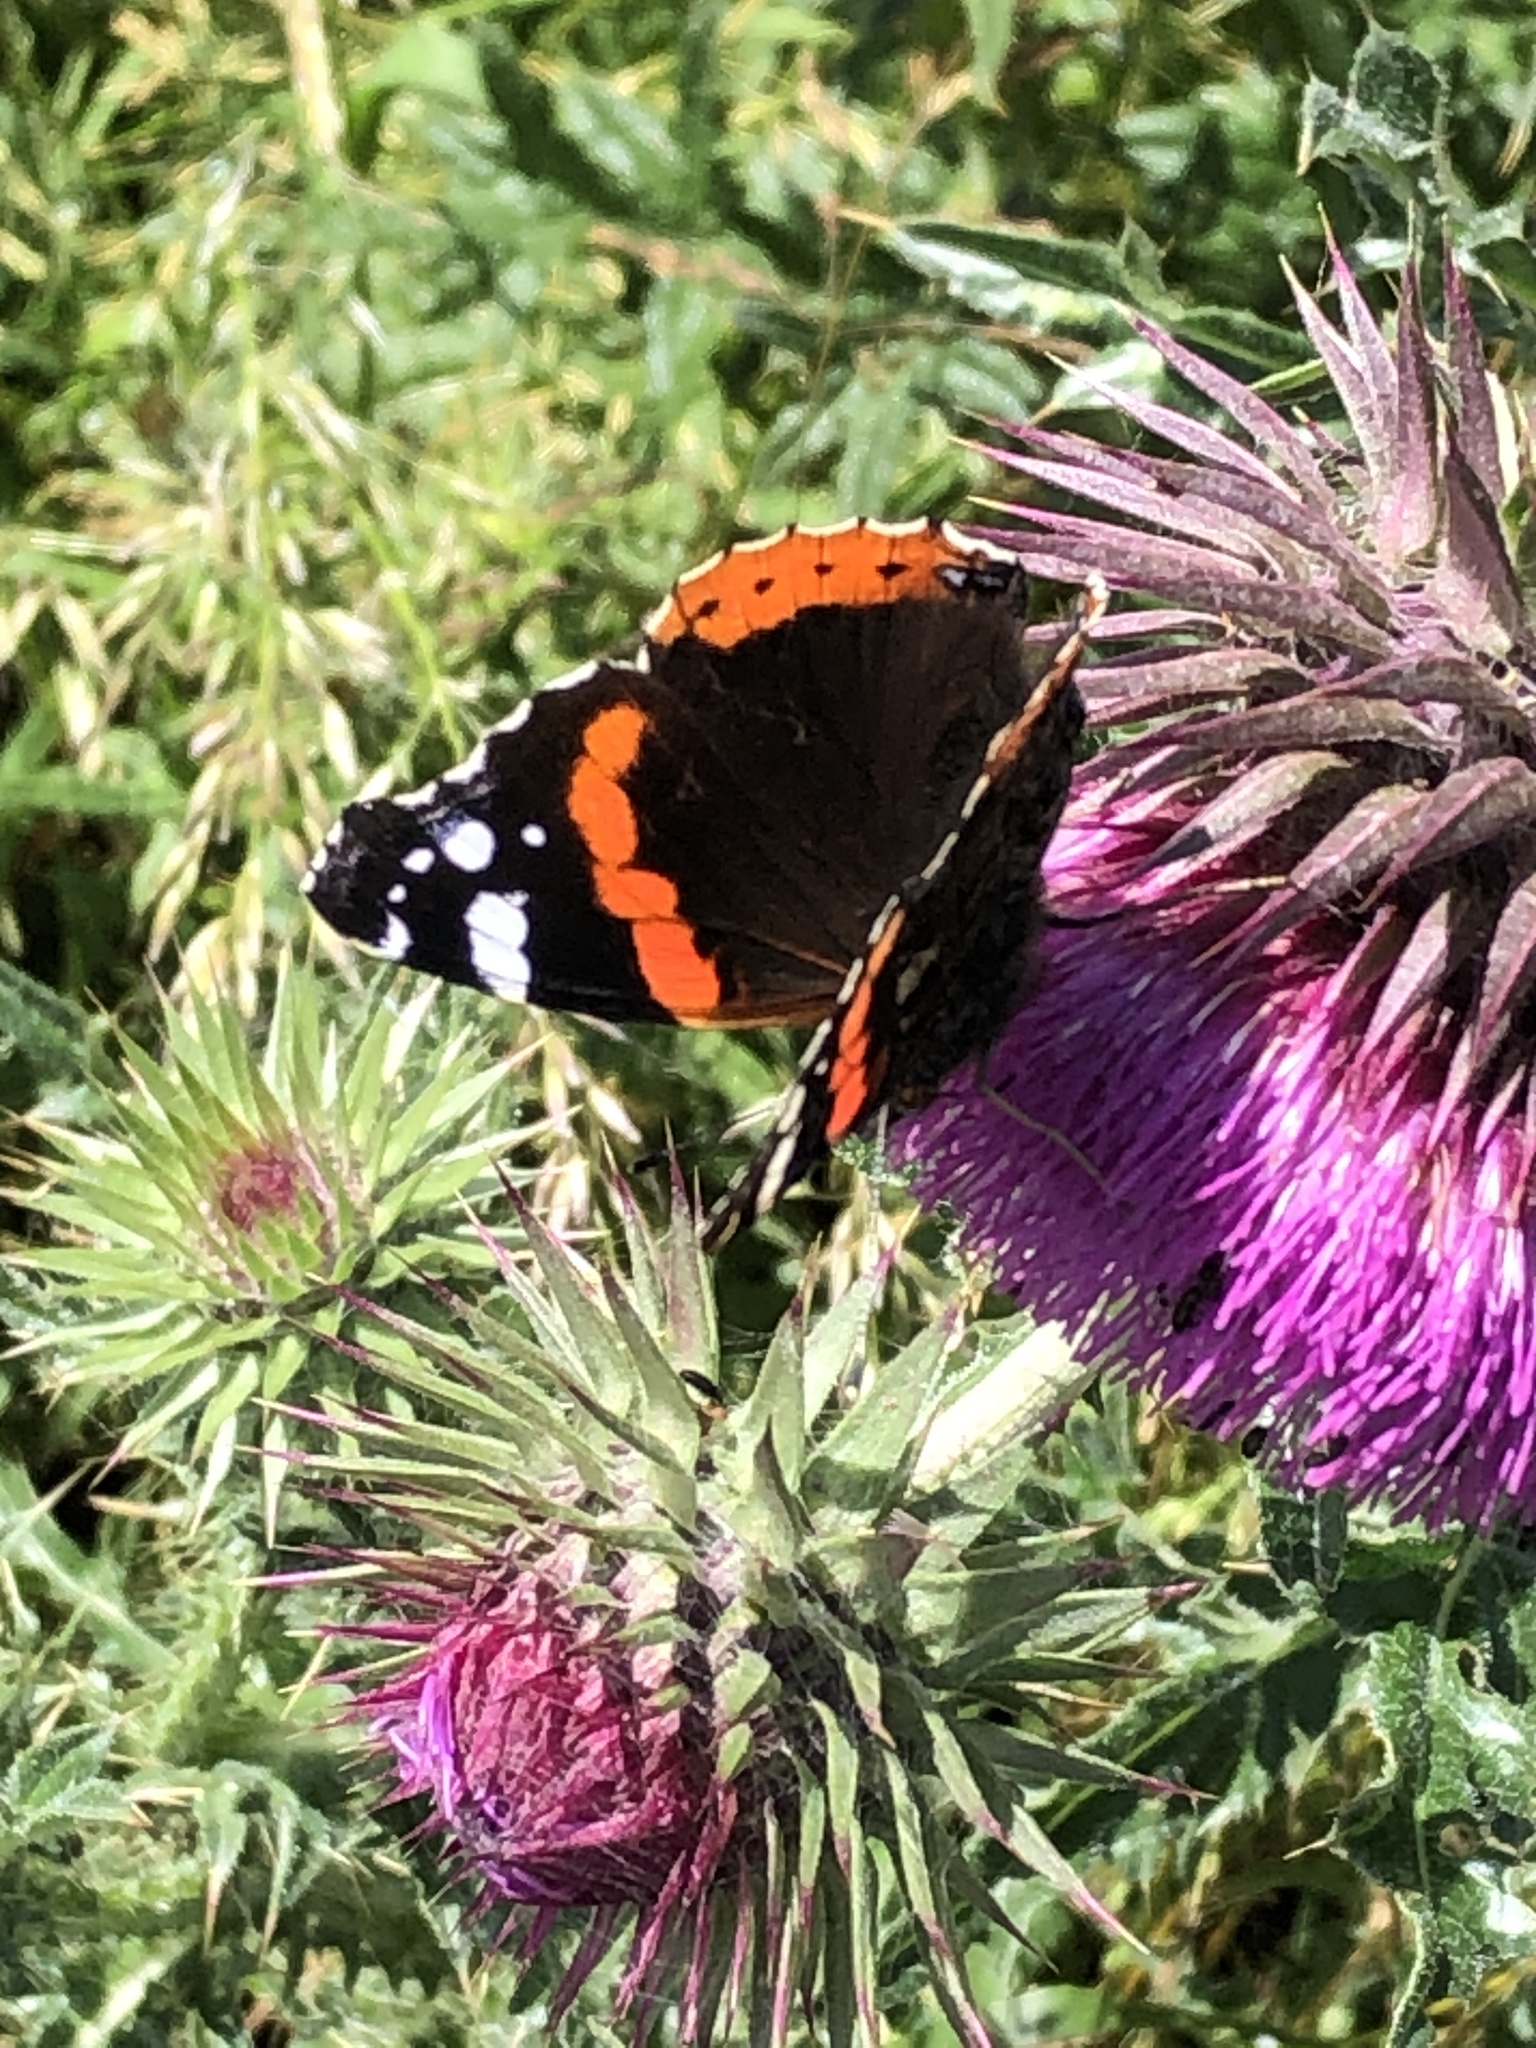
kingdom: Animalia
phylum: Arthropoda
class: Insecta
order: Lepidoptera
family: Nymphalidae
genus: Vanessa
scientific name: Vanessa atalanta
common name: Red admiral
